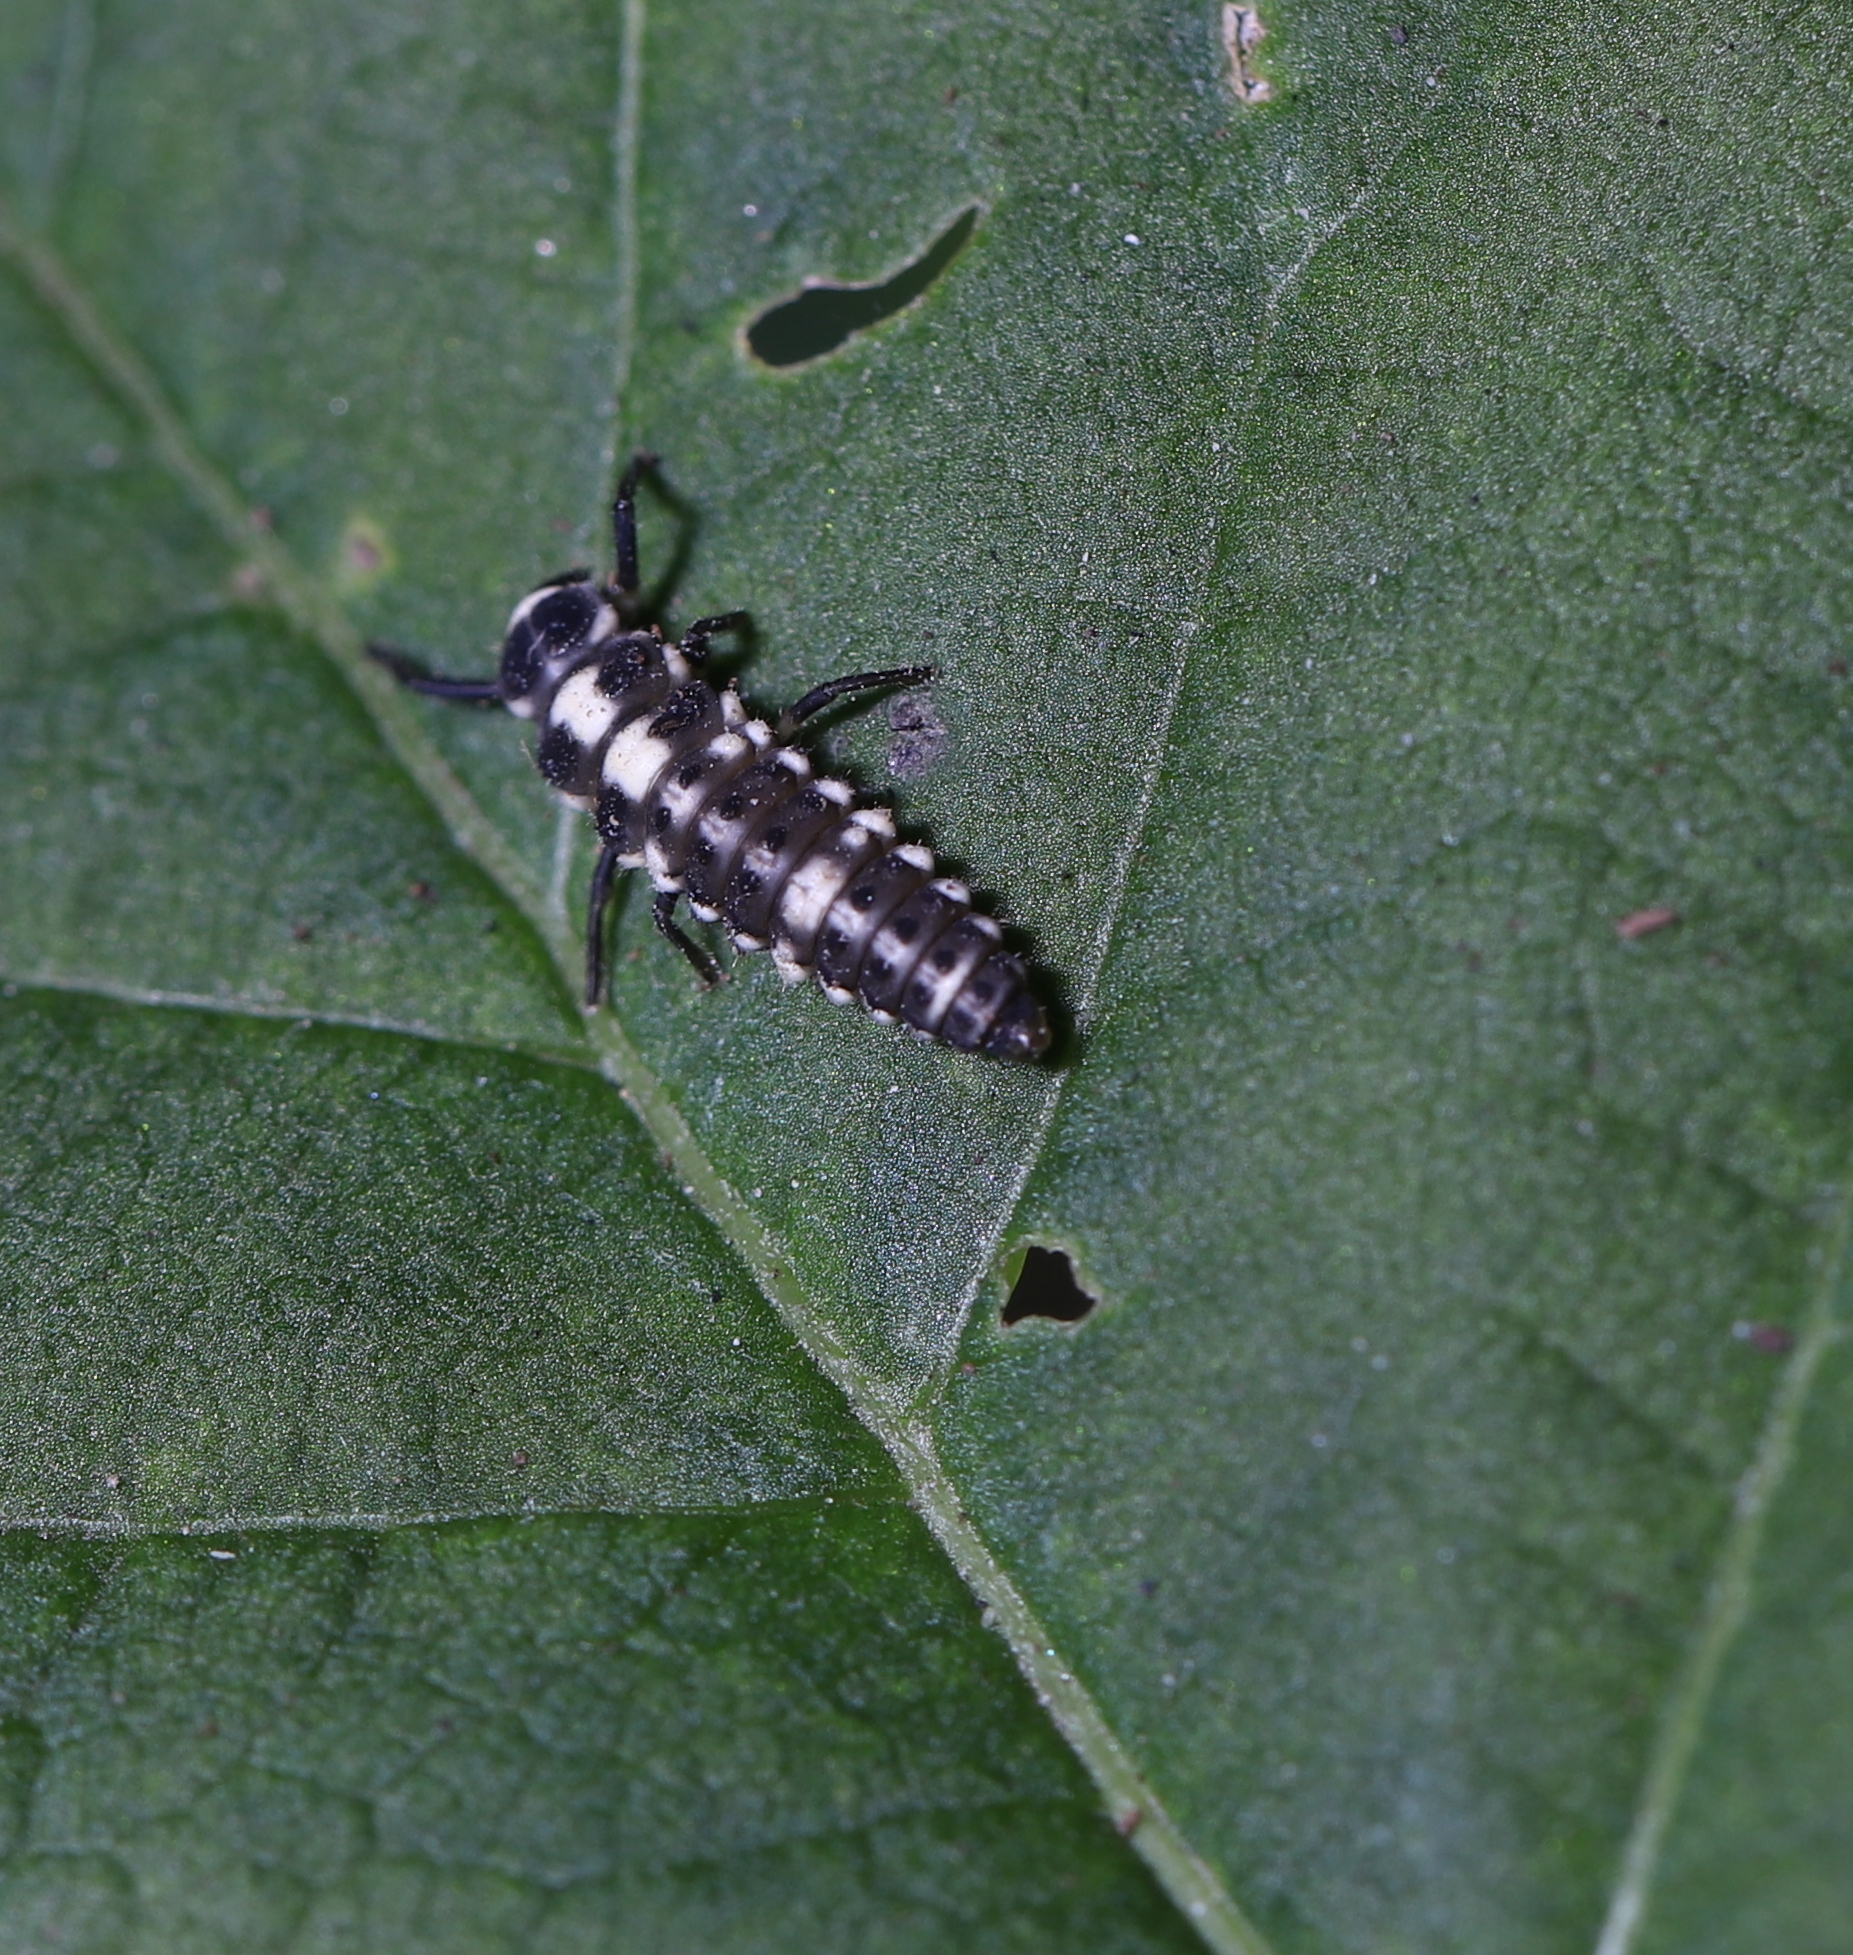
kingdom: Animalia
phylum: Arthropoda
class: Insecta
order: Coleoptera
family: Coccinellidae
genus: Propylaea
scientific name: Propylaea quatuordecimpunctata
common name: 14-spotted ladybird beetle
